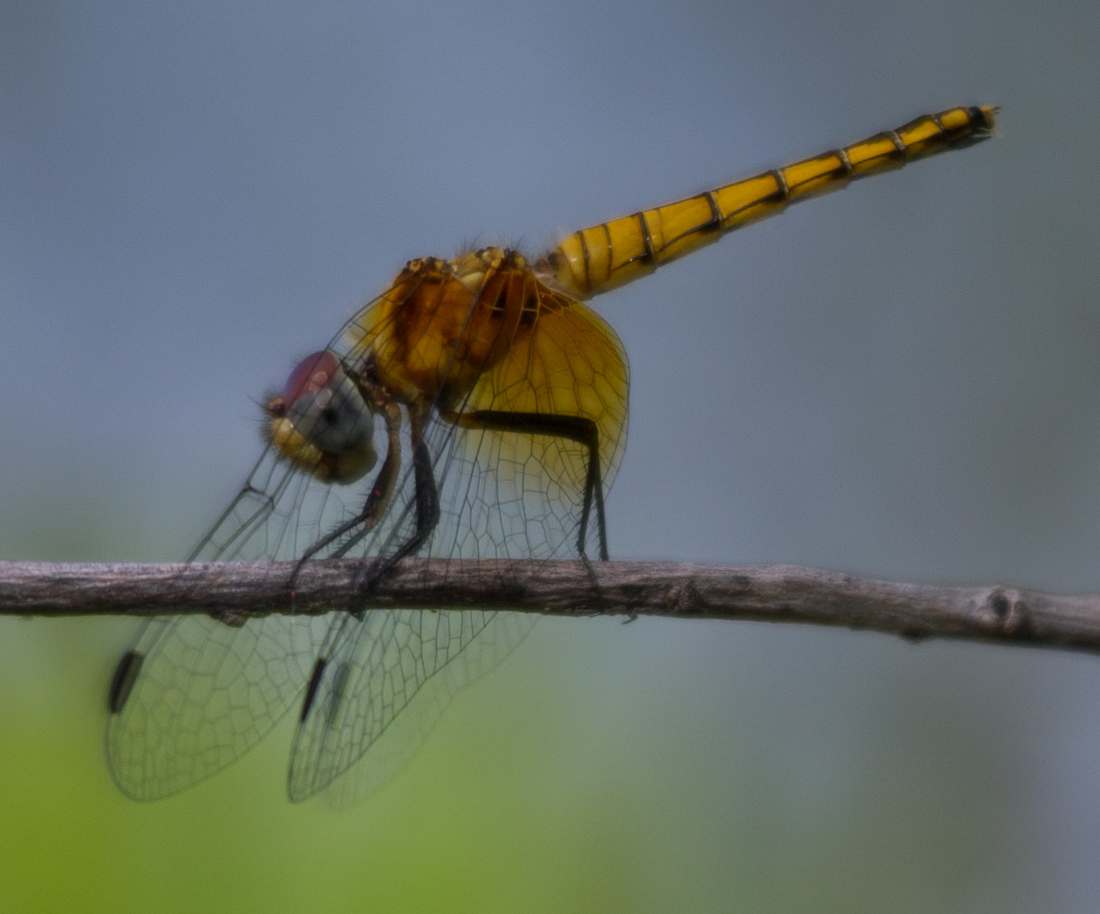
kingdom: Animalia
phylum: Arthropoda
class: Insecta
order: Odonata
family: Libellulidae
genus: Aethriamanta
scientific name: Aethriamanta rezia
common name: Pygmy basker
